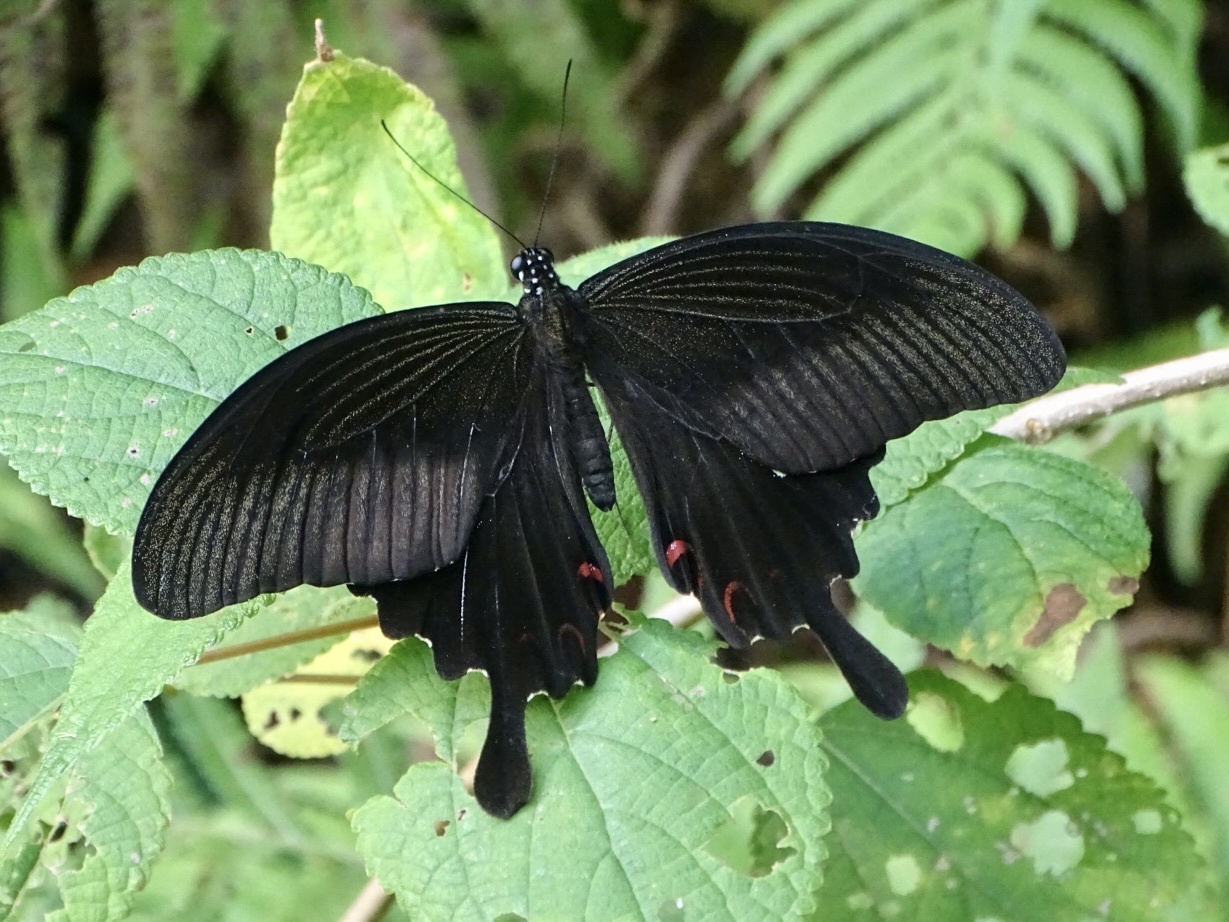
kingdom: Animalia
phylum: Arthropoda
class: Insecta
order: Lepidoptera
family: Papilionidae
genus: Papilio
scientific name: Papilio helenus
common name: Red helen
